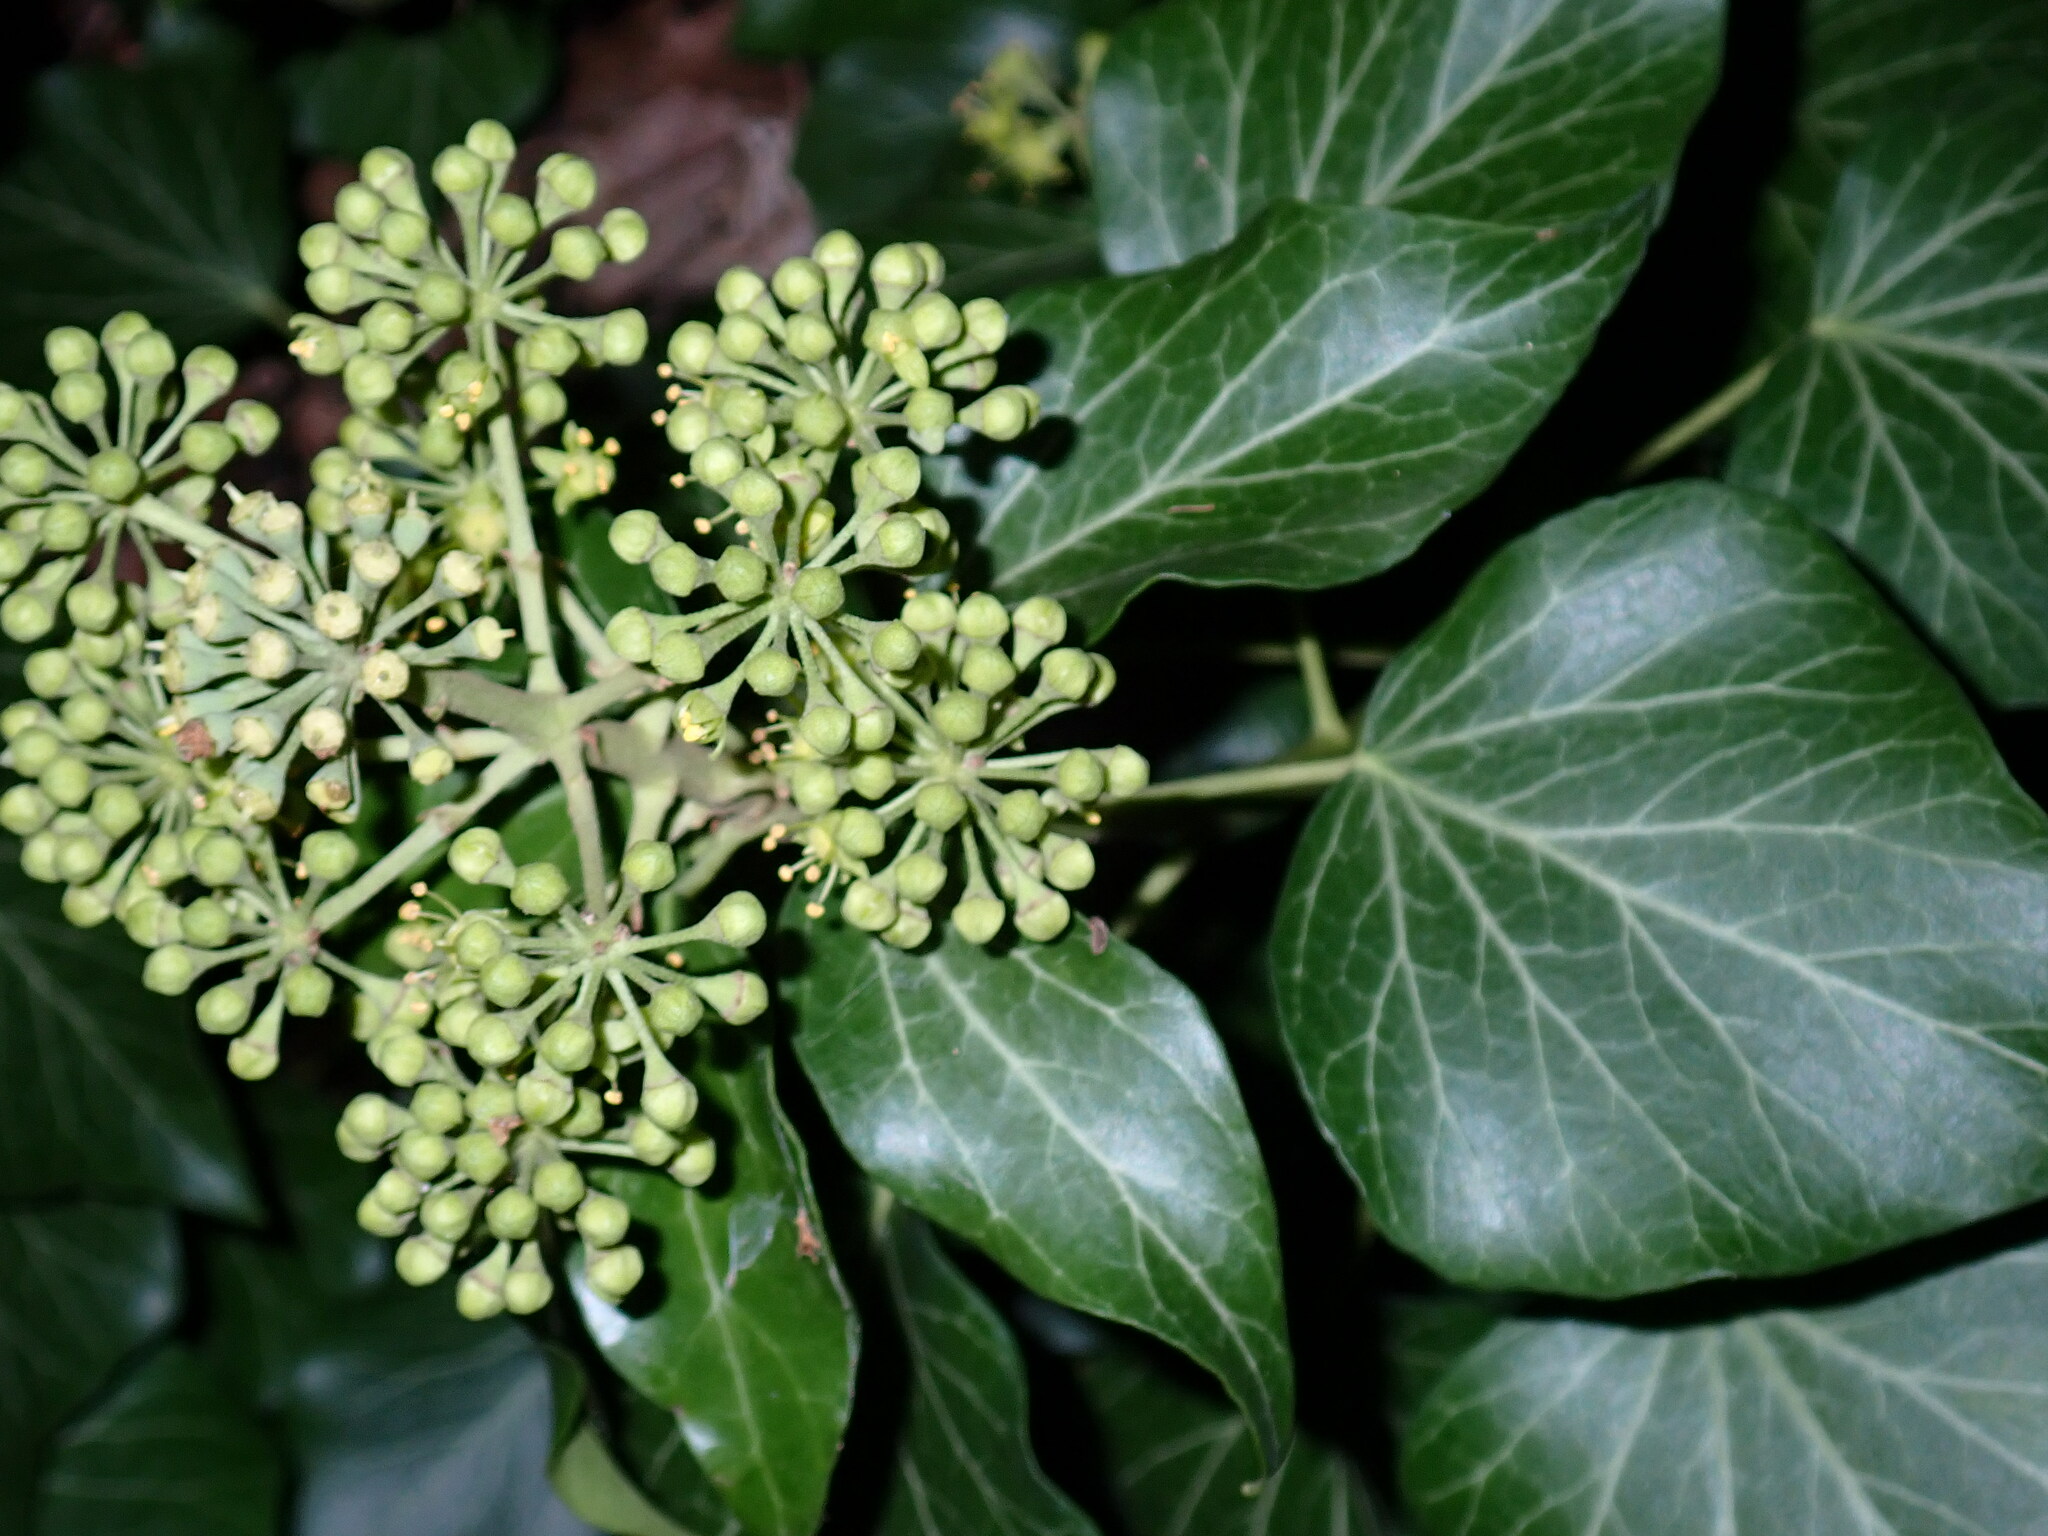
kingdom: Plantae
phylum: Tracheophyta
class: Magnoliopsida
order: Apiales
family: Araliaceae
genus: Hedera
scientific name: Hedera helix
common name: Ivy
